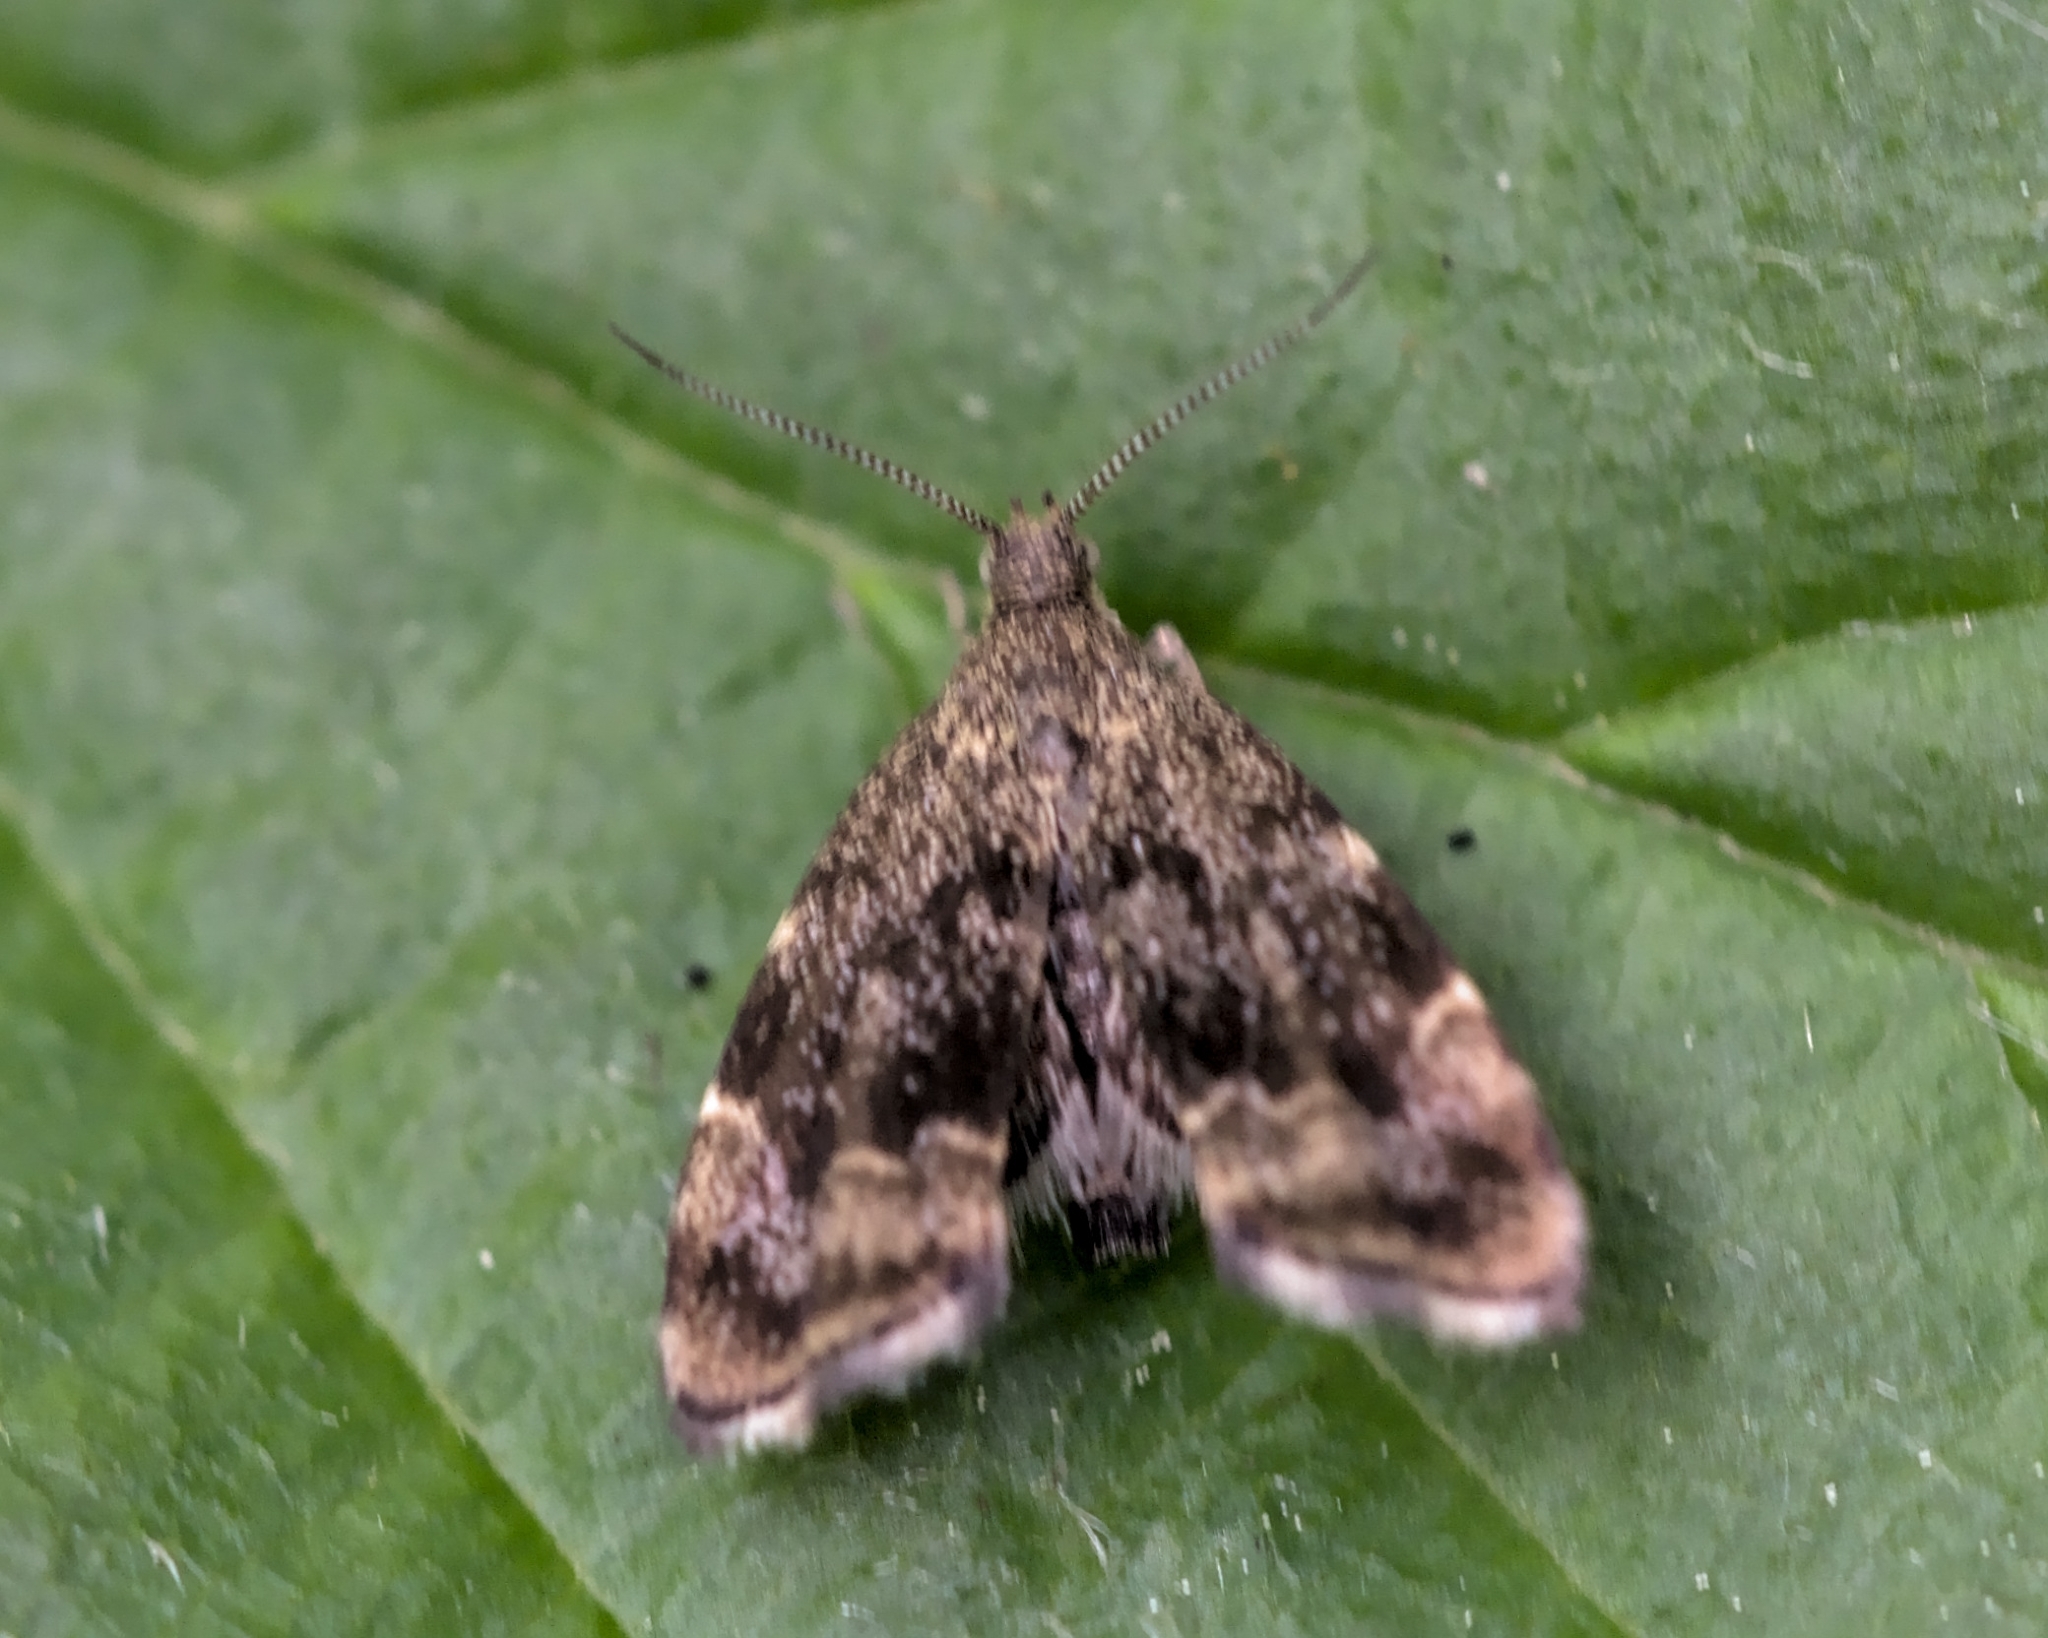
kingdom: Animalia
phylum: Arthropoda
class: Insecta
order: Lepidoptera
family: Choreutidae
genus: Anthophila
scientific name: Anthophila fabriciana
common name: Nettle-tap
